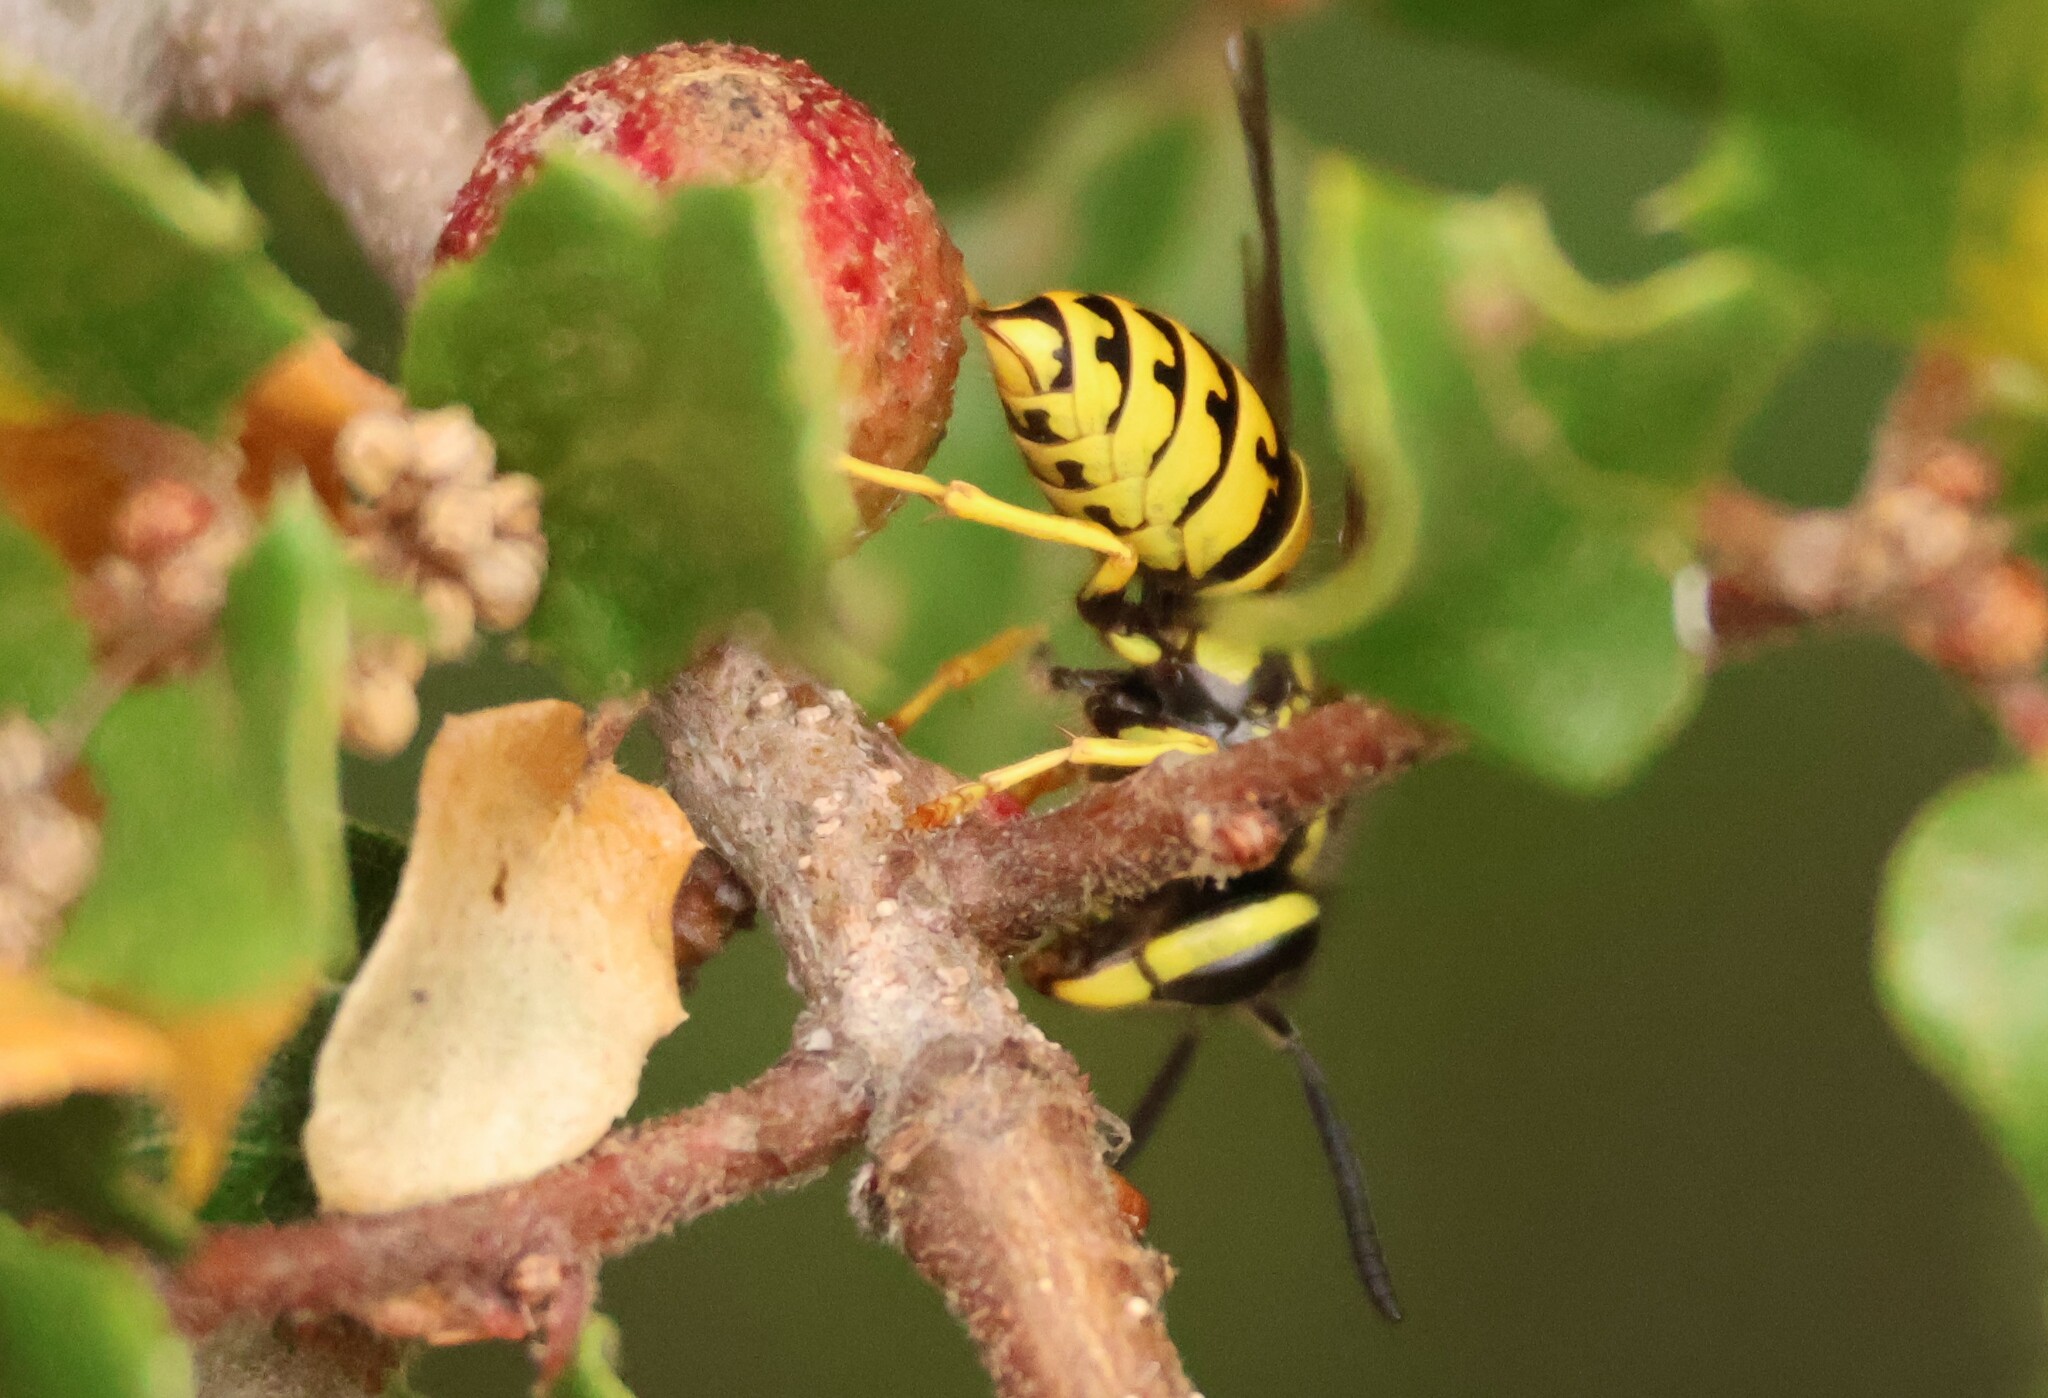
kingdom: Animalia
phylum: Arthropoda
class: Insecta
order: Hymenoptera
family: Vespidae
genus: Vespula
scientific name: Vespula pensylvanica
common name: Western yellowjacket
